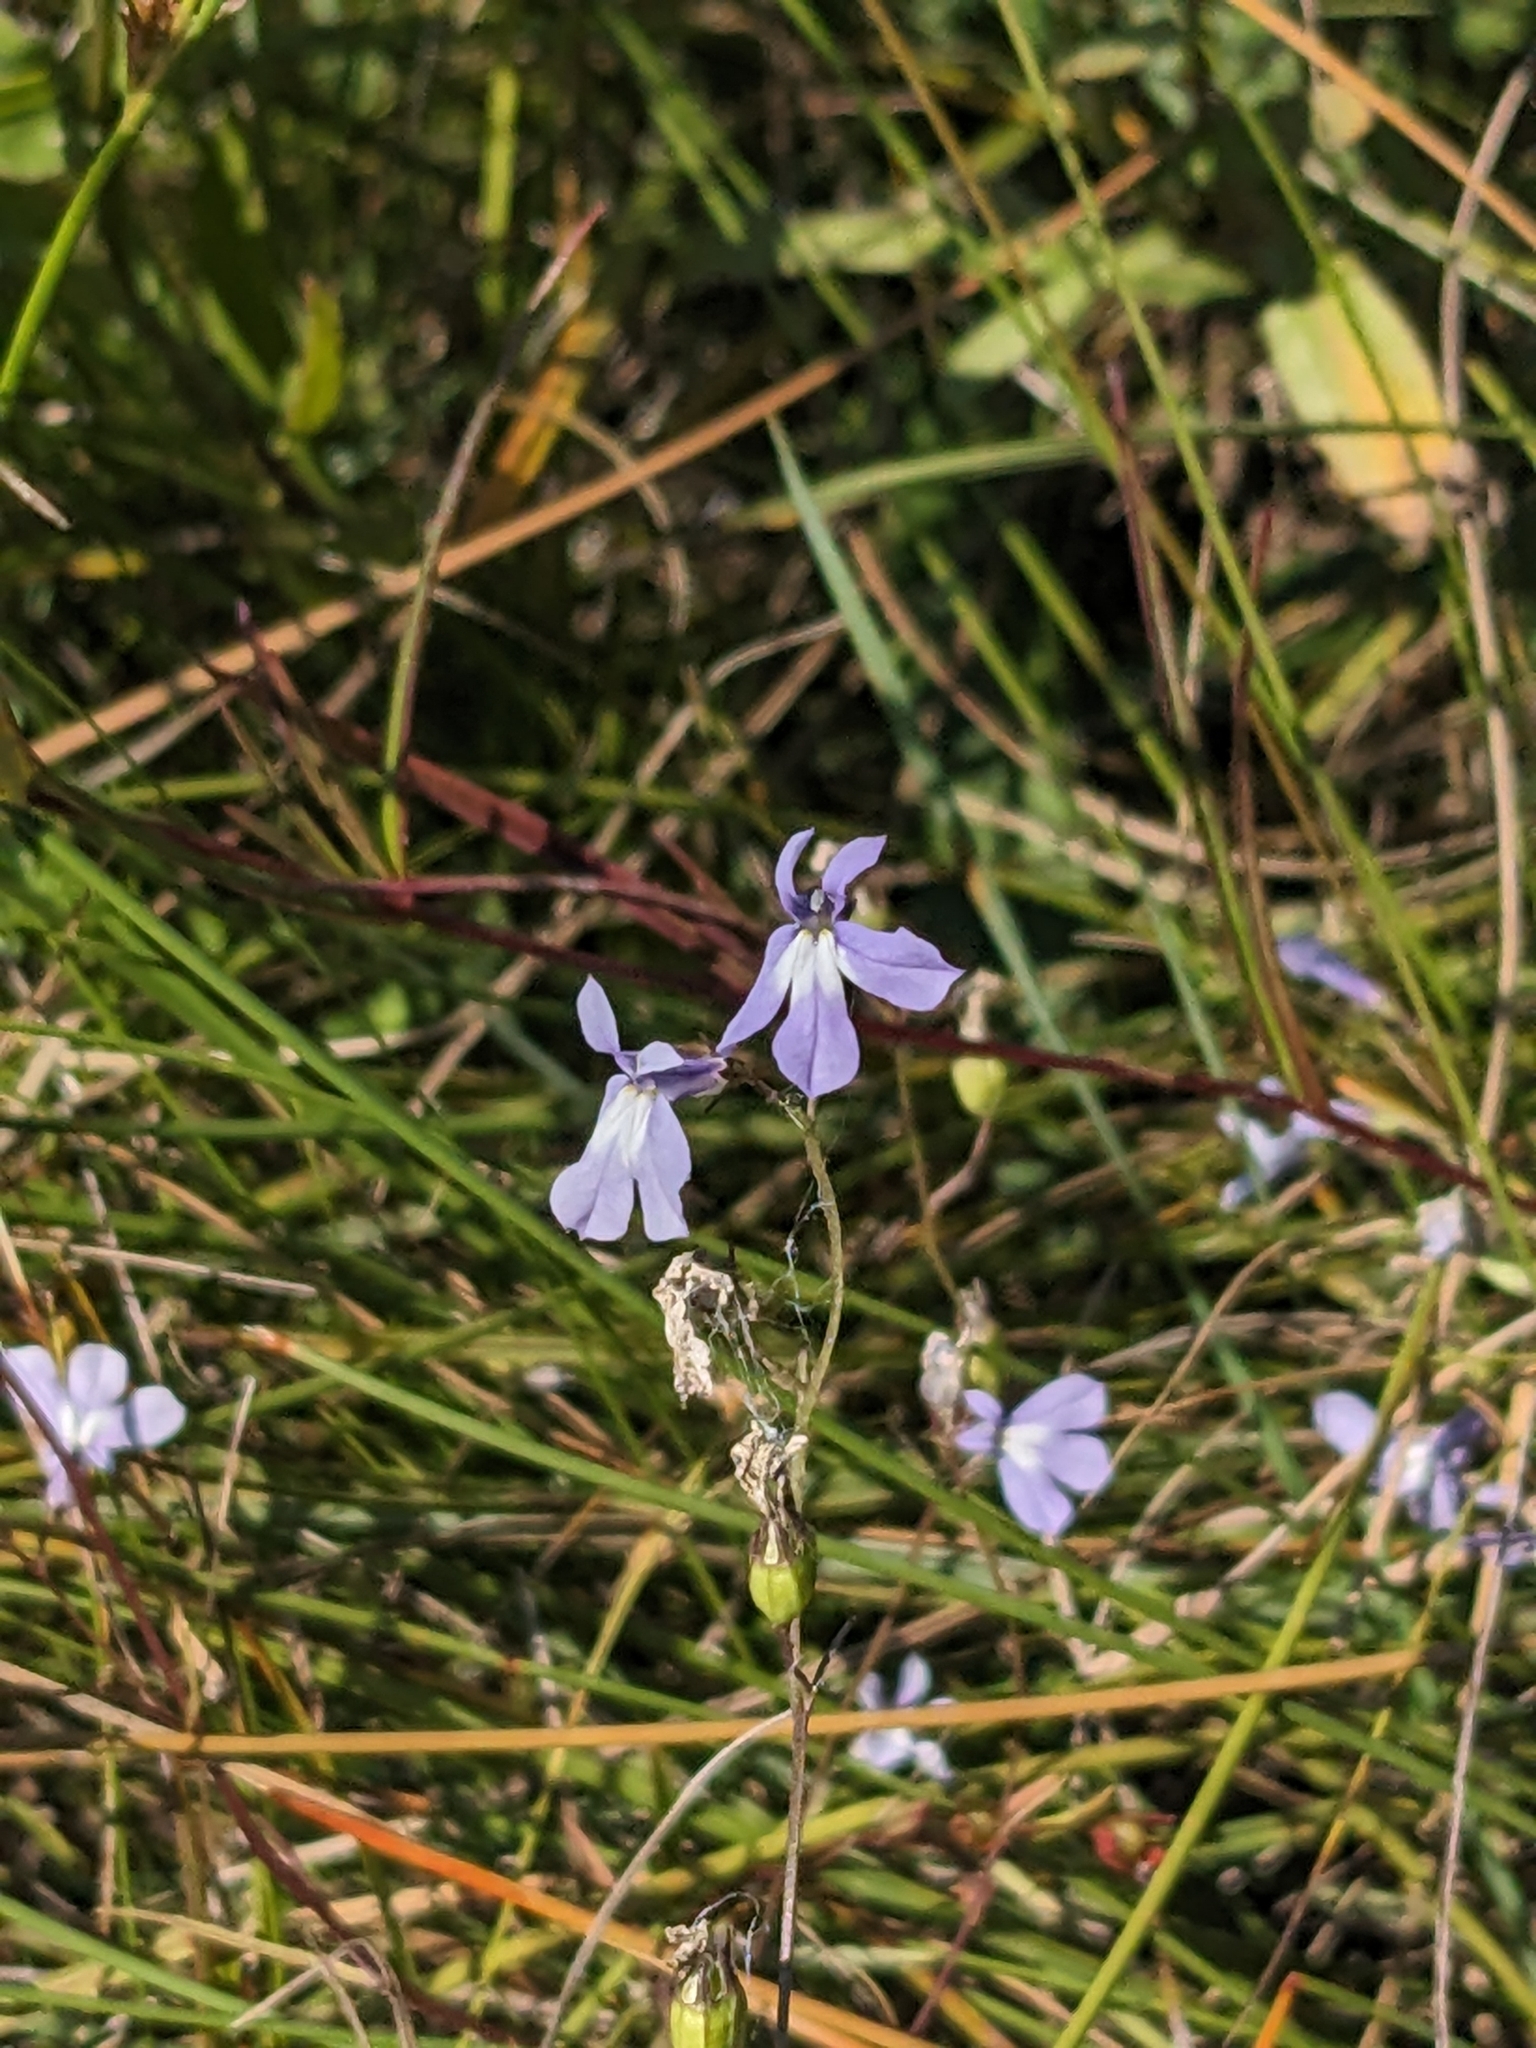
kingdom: Plantae
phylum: Tracheophyta
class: Magnoliopsida
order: Asterales
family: Campanulaceae
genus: Lobelia
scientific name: Lobelia kalmii
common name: Kalm's lobelia
